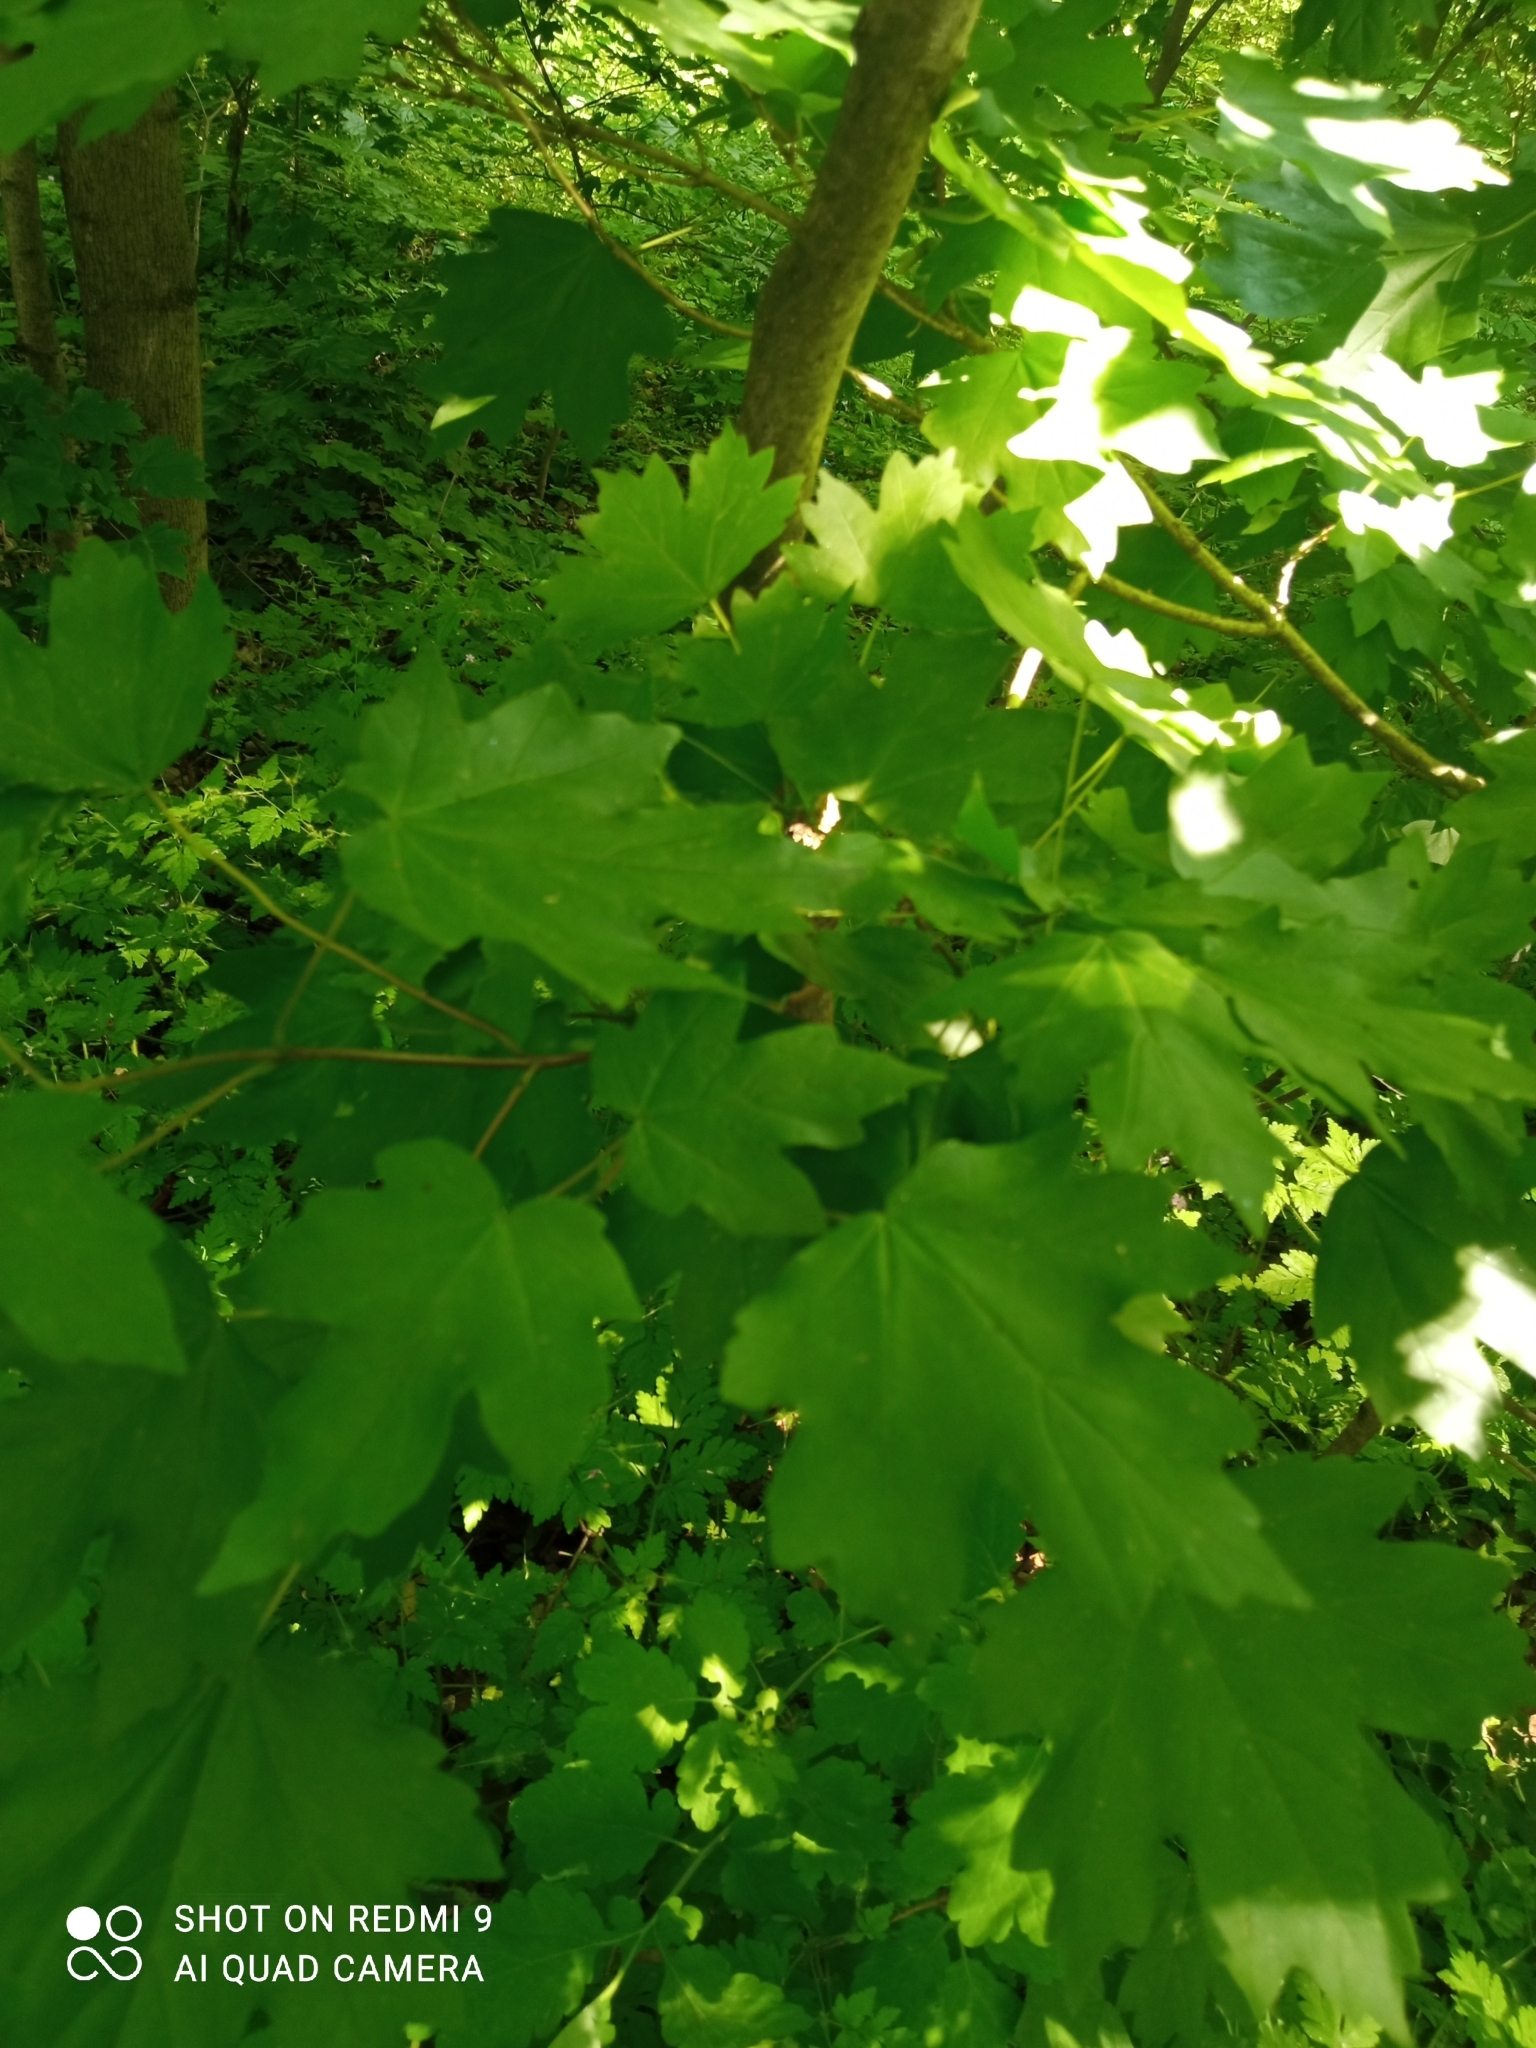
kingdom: Plantae
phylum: Tracheophyta
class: Magnoliopsida
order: Sapindales
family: Sapindaceae
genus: Acer
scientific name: Acer campestre
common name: Field maple
